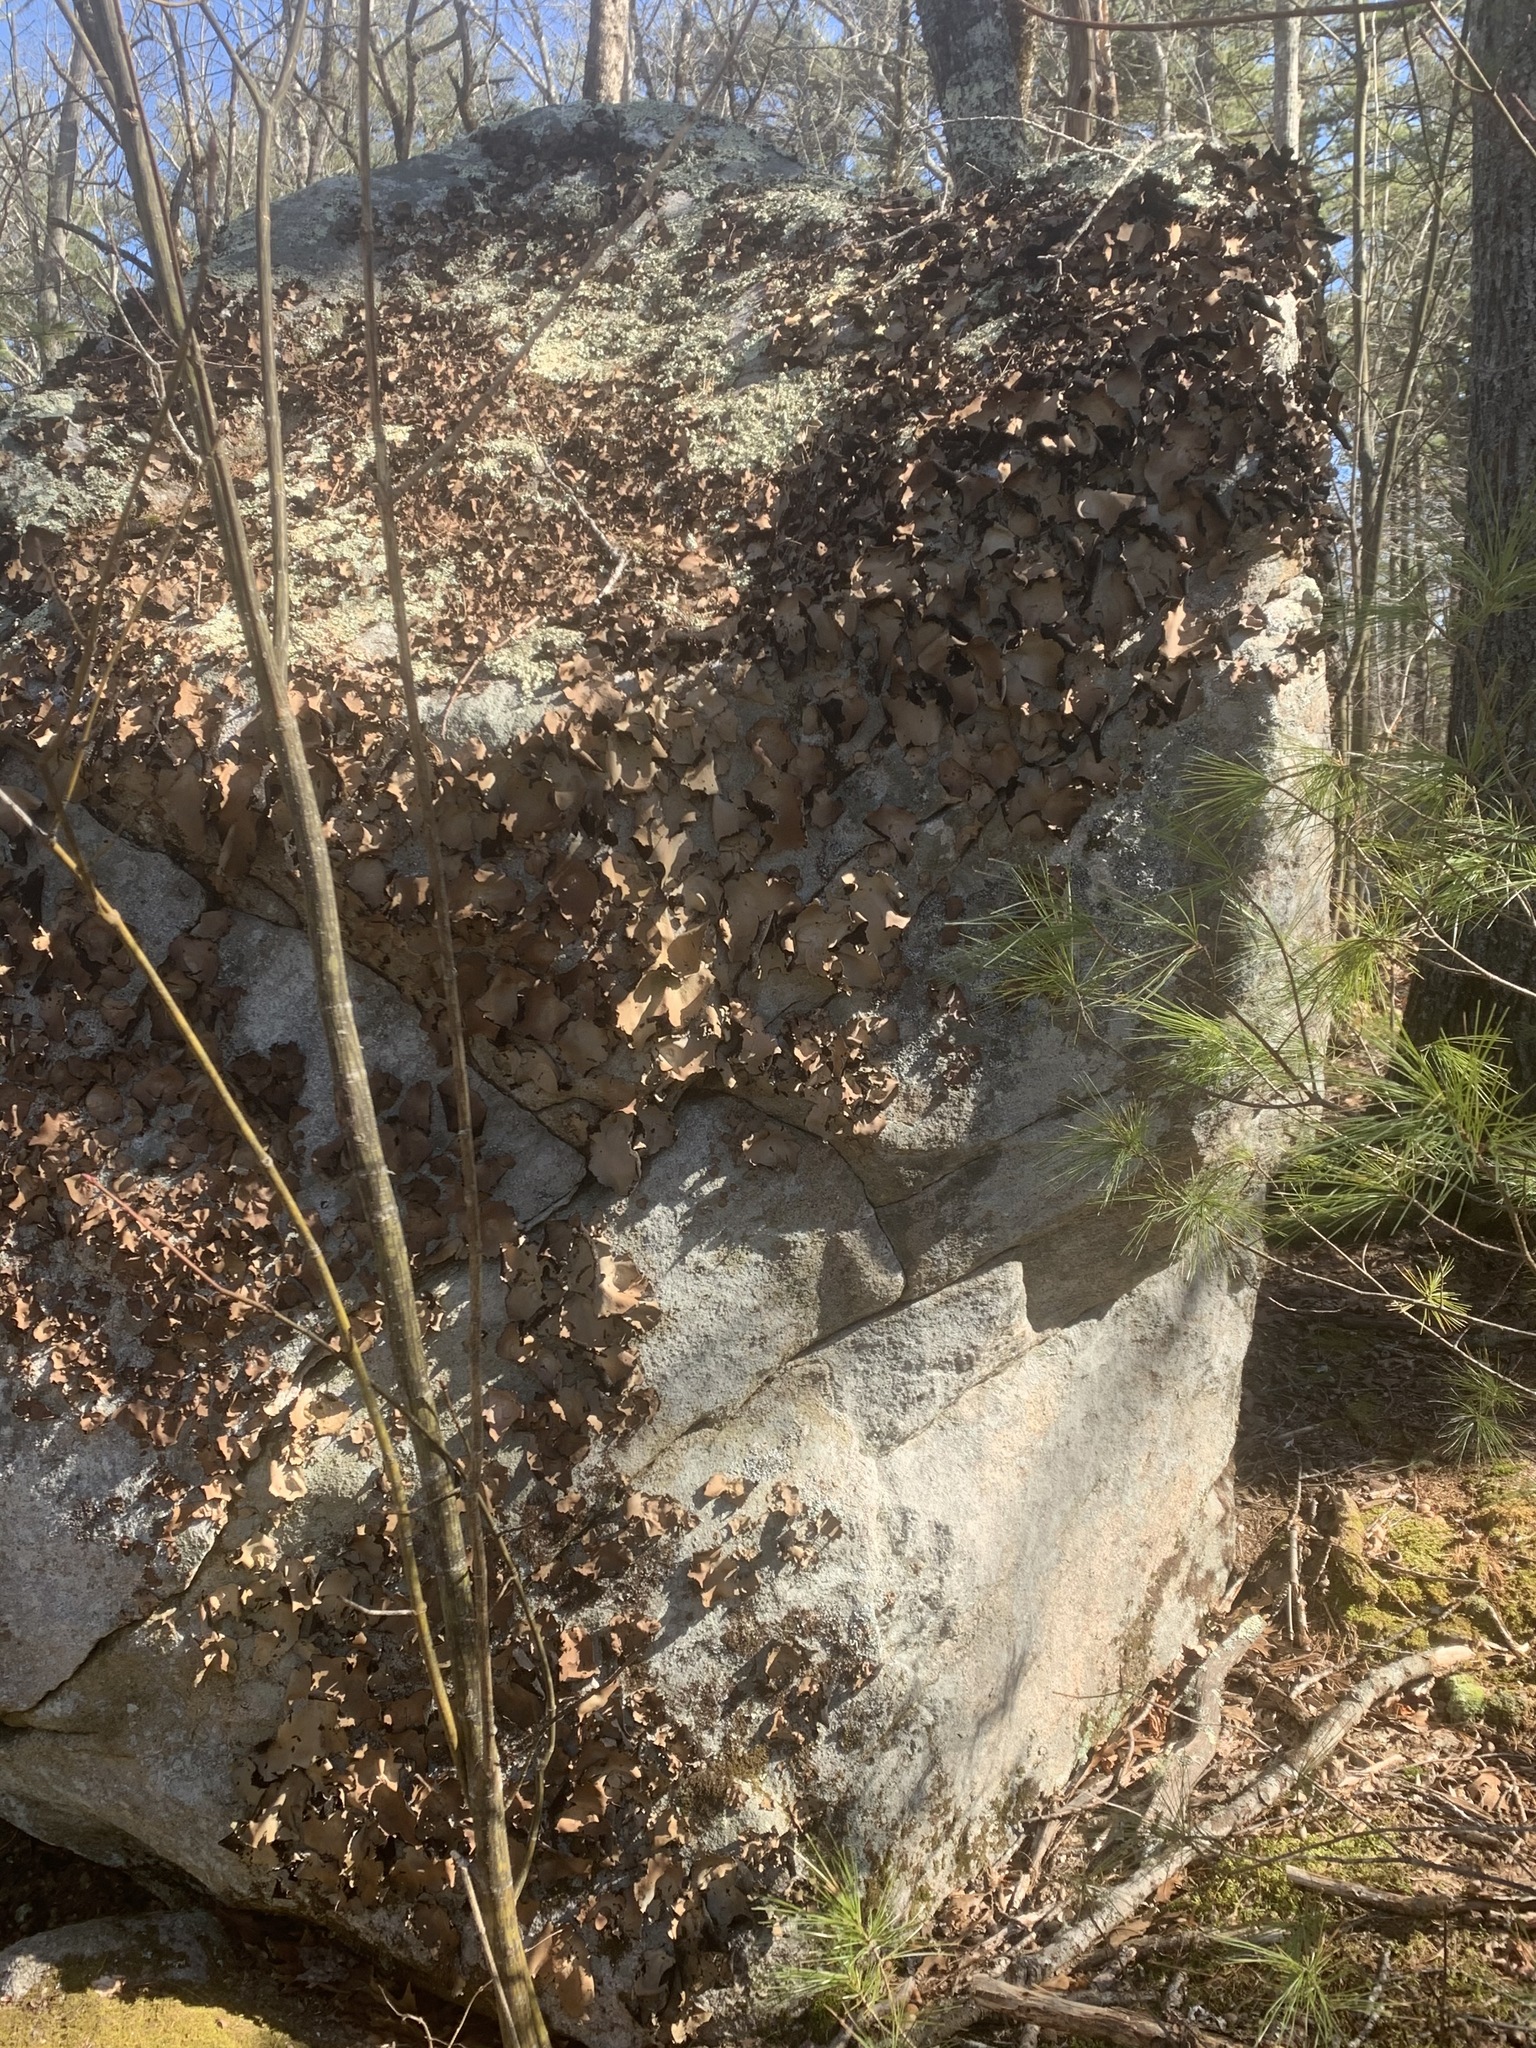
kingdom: Fungi
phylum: Ascomycota
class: Lecanoromycetes
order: Umbilicariales
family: Umbilicariaceae
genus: Umbilicaria
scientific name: Umbilicaria mammulata
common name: Smooth rock tripe
